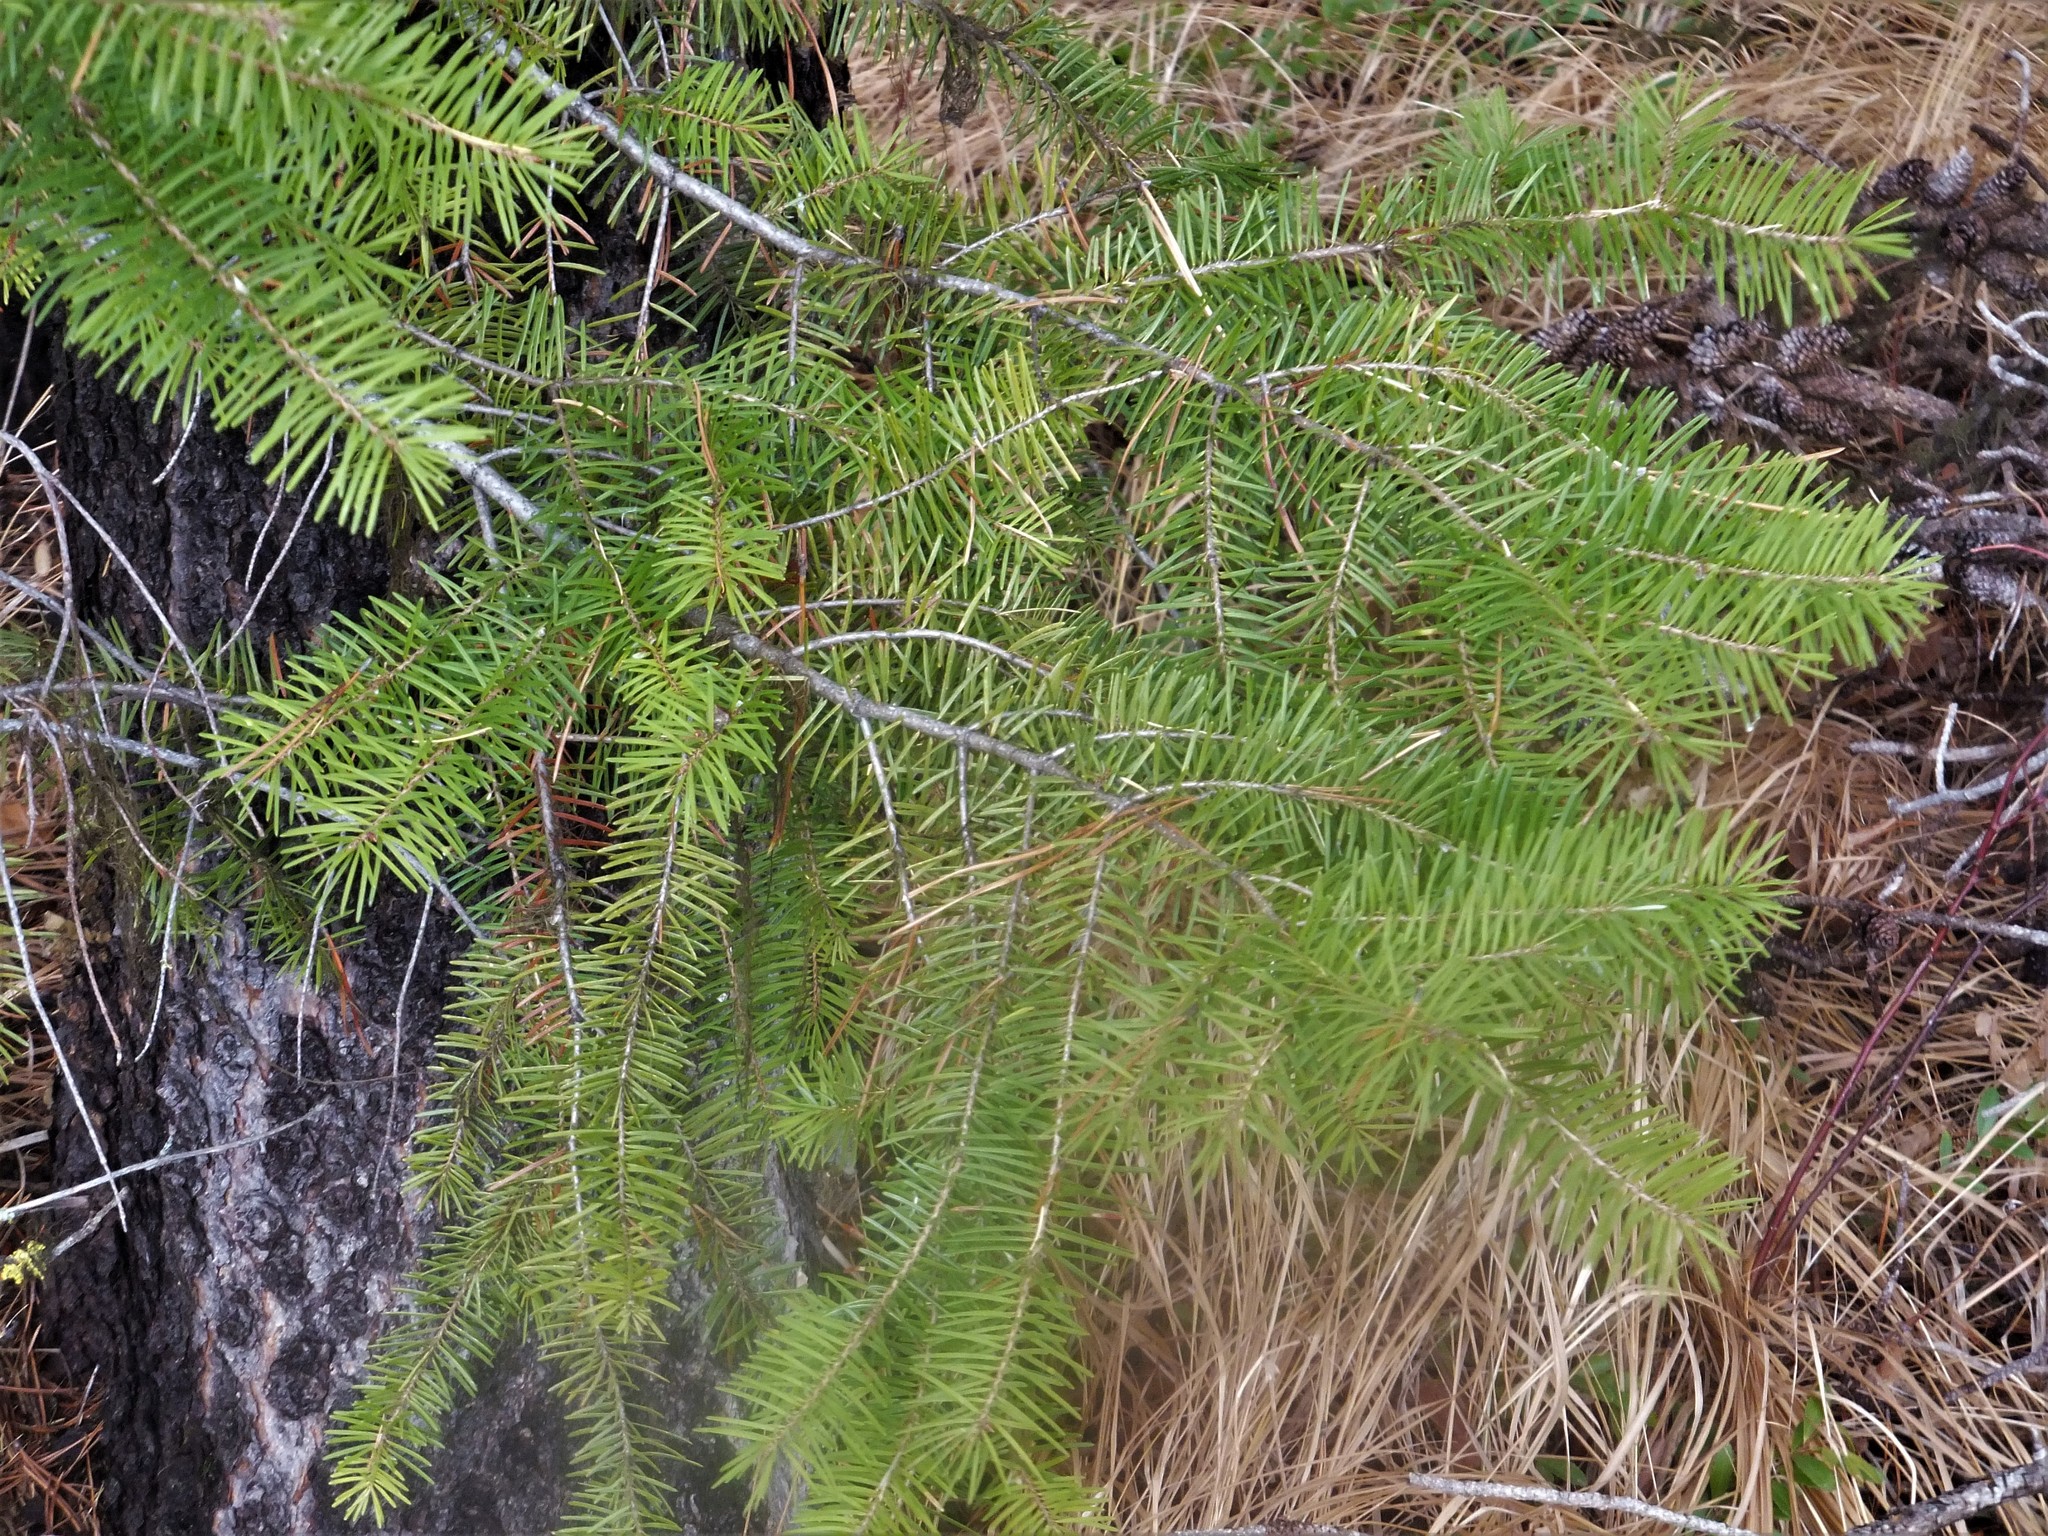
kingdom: Plantae
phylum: Tracheophyta
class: Pinopsida
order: Pinales
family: Pinaceae
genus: Pseudotsuga
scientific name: Pseudotsuga menziesii
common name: Douglas fir
